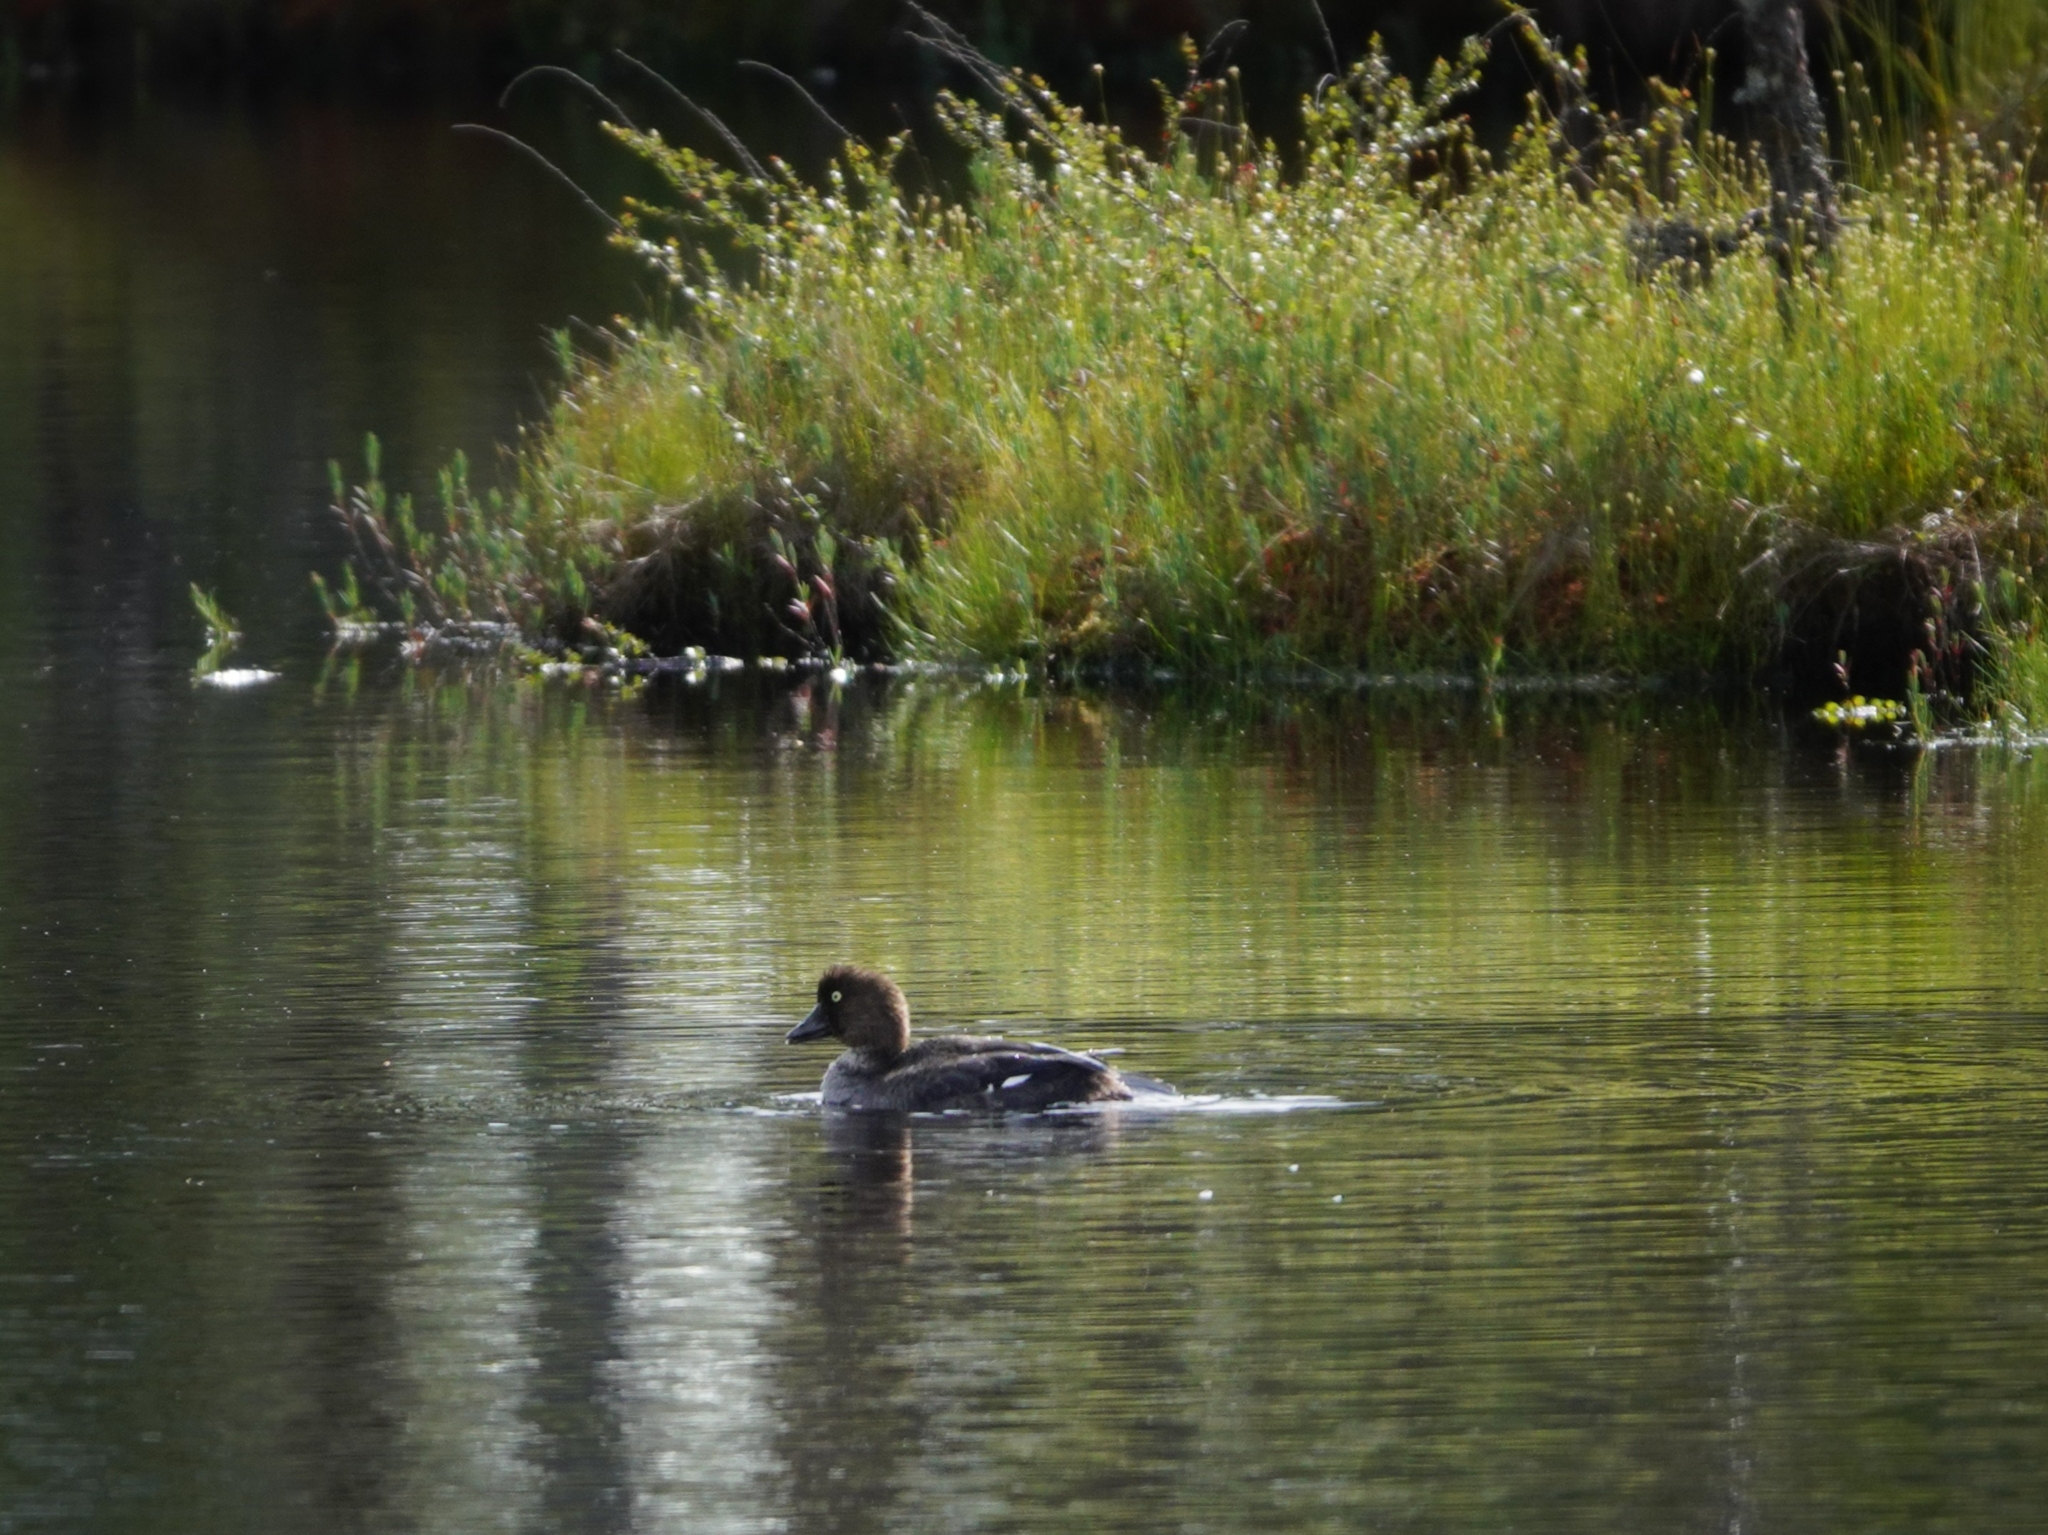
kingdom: Animalia
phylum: Chordata
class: Aves
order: Anseriformes
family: Anatidae
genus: Bucephala
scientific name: Bucephala clangula
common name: Common goldeneye
